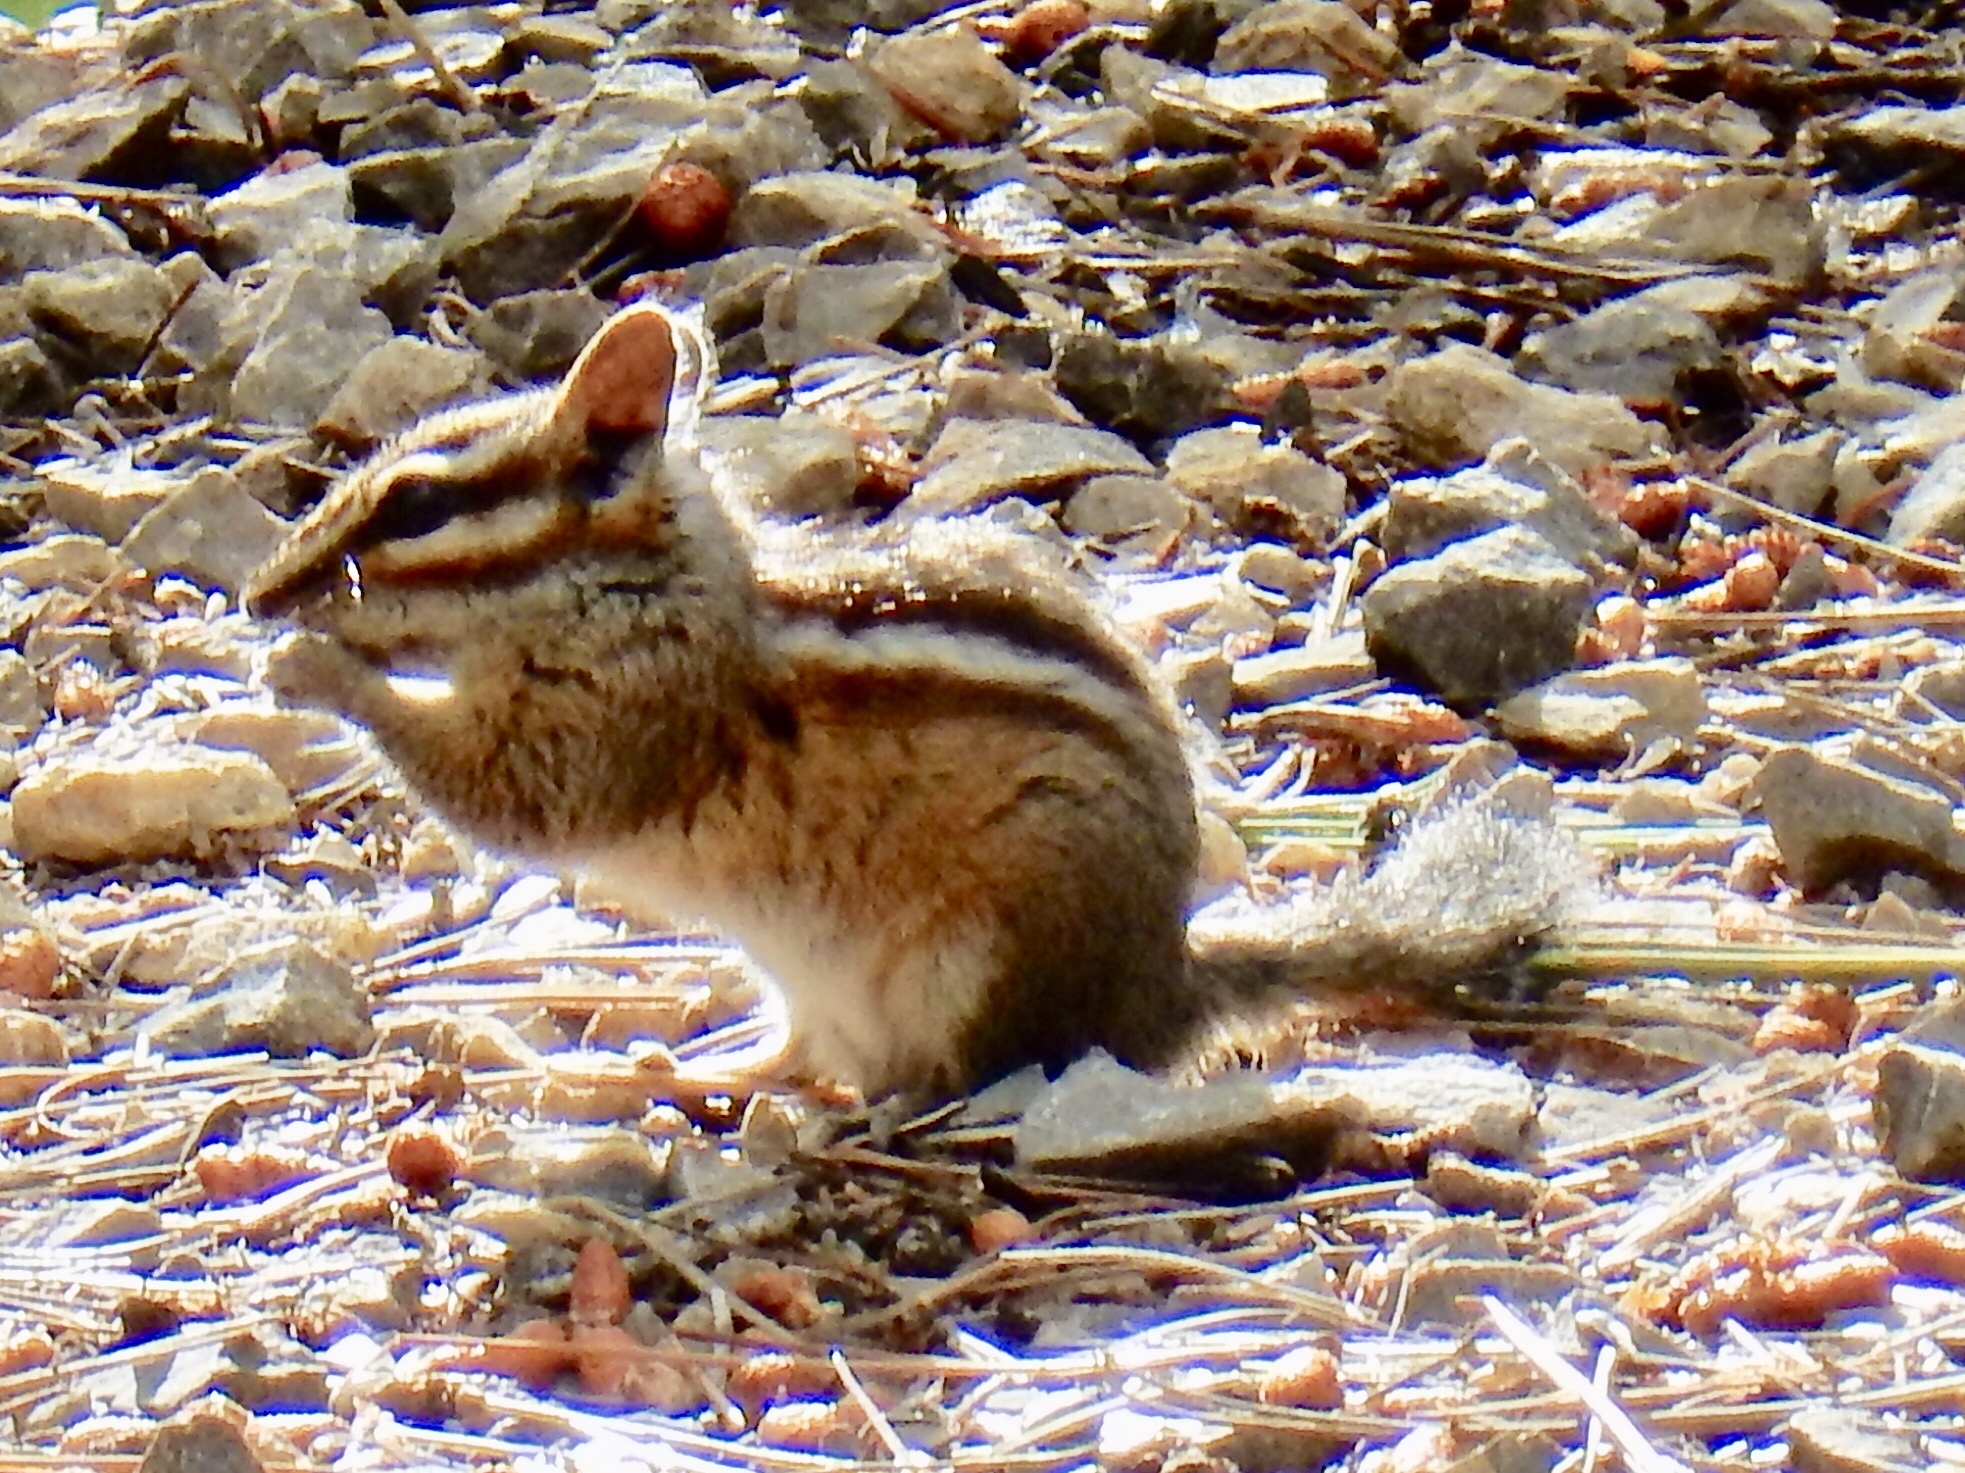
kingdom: Animalia
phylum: Chordata
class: Mammalia
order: Rodentia
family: Sciuridae
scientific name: Sciuridae
